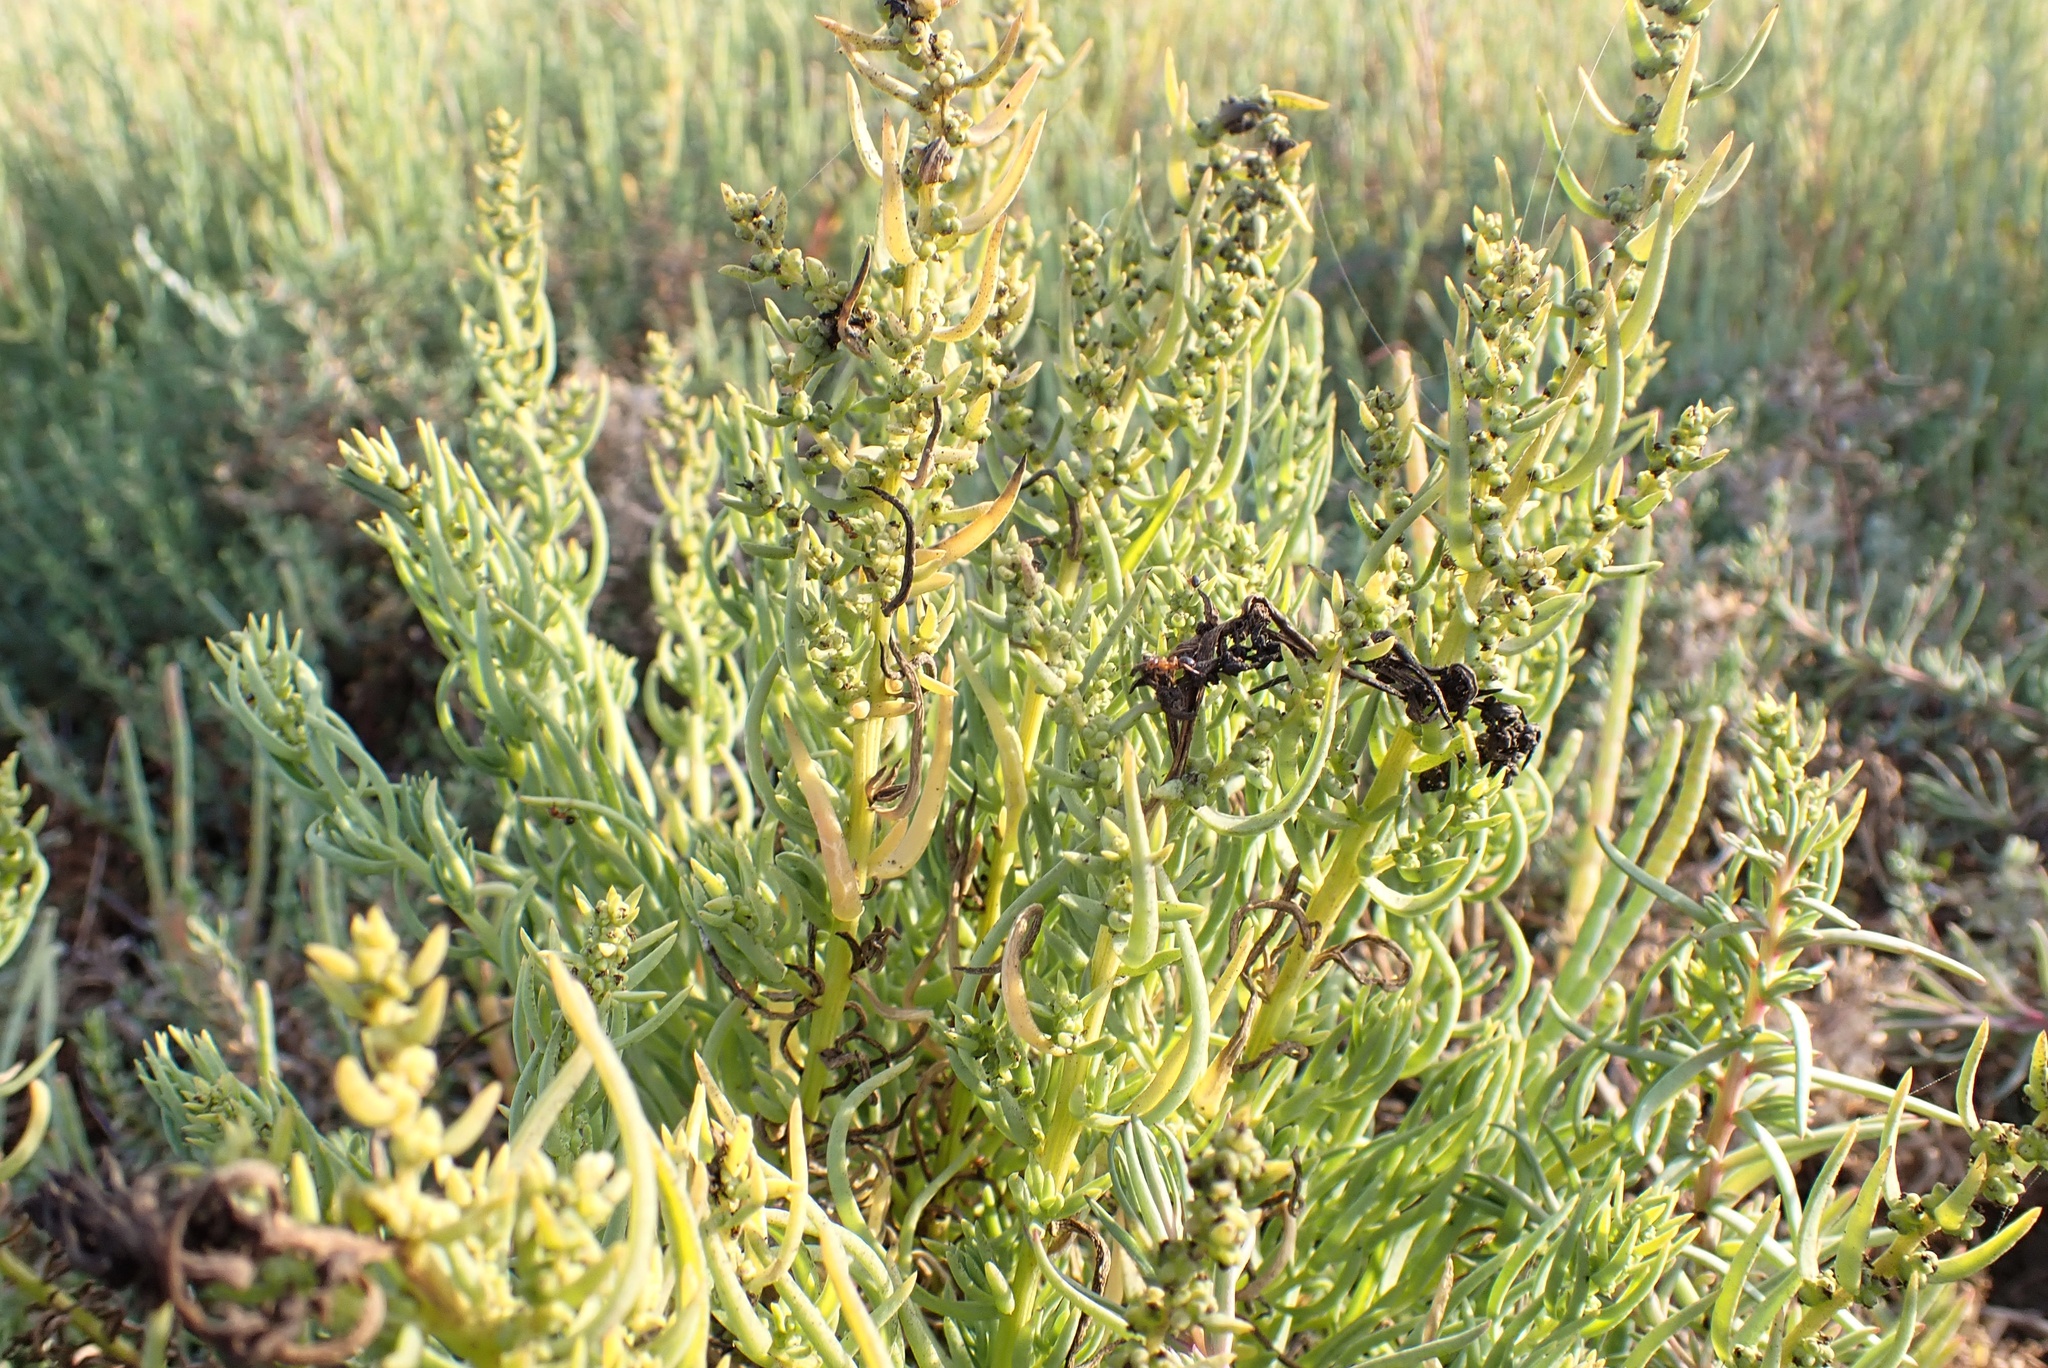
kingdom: Plantae
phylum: Tracheophyta
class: Magnoliopsida
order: Caryophyllales
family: Amaranthaceae
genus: Suaeda
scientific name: Suaeda taxifolia
